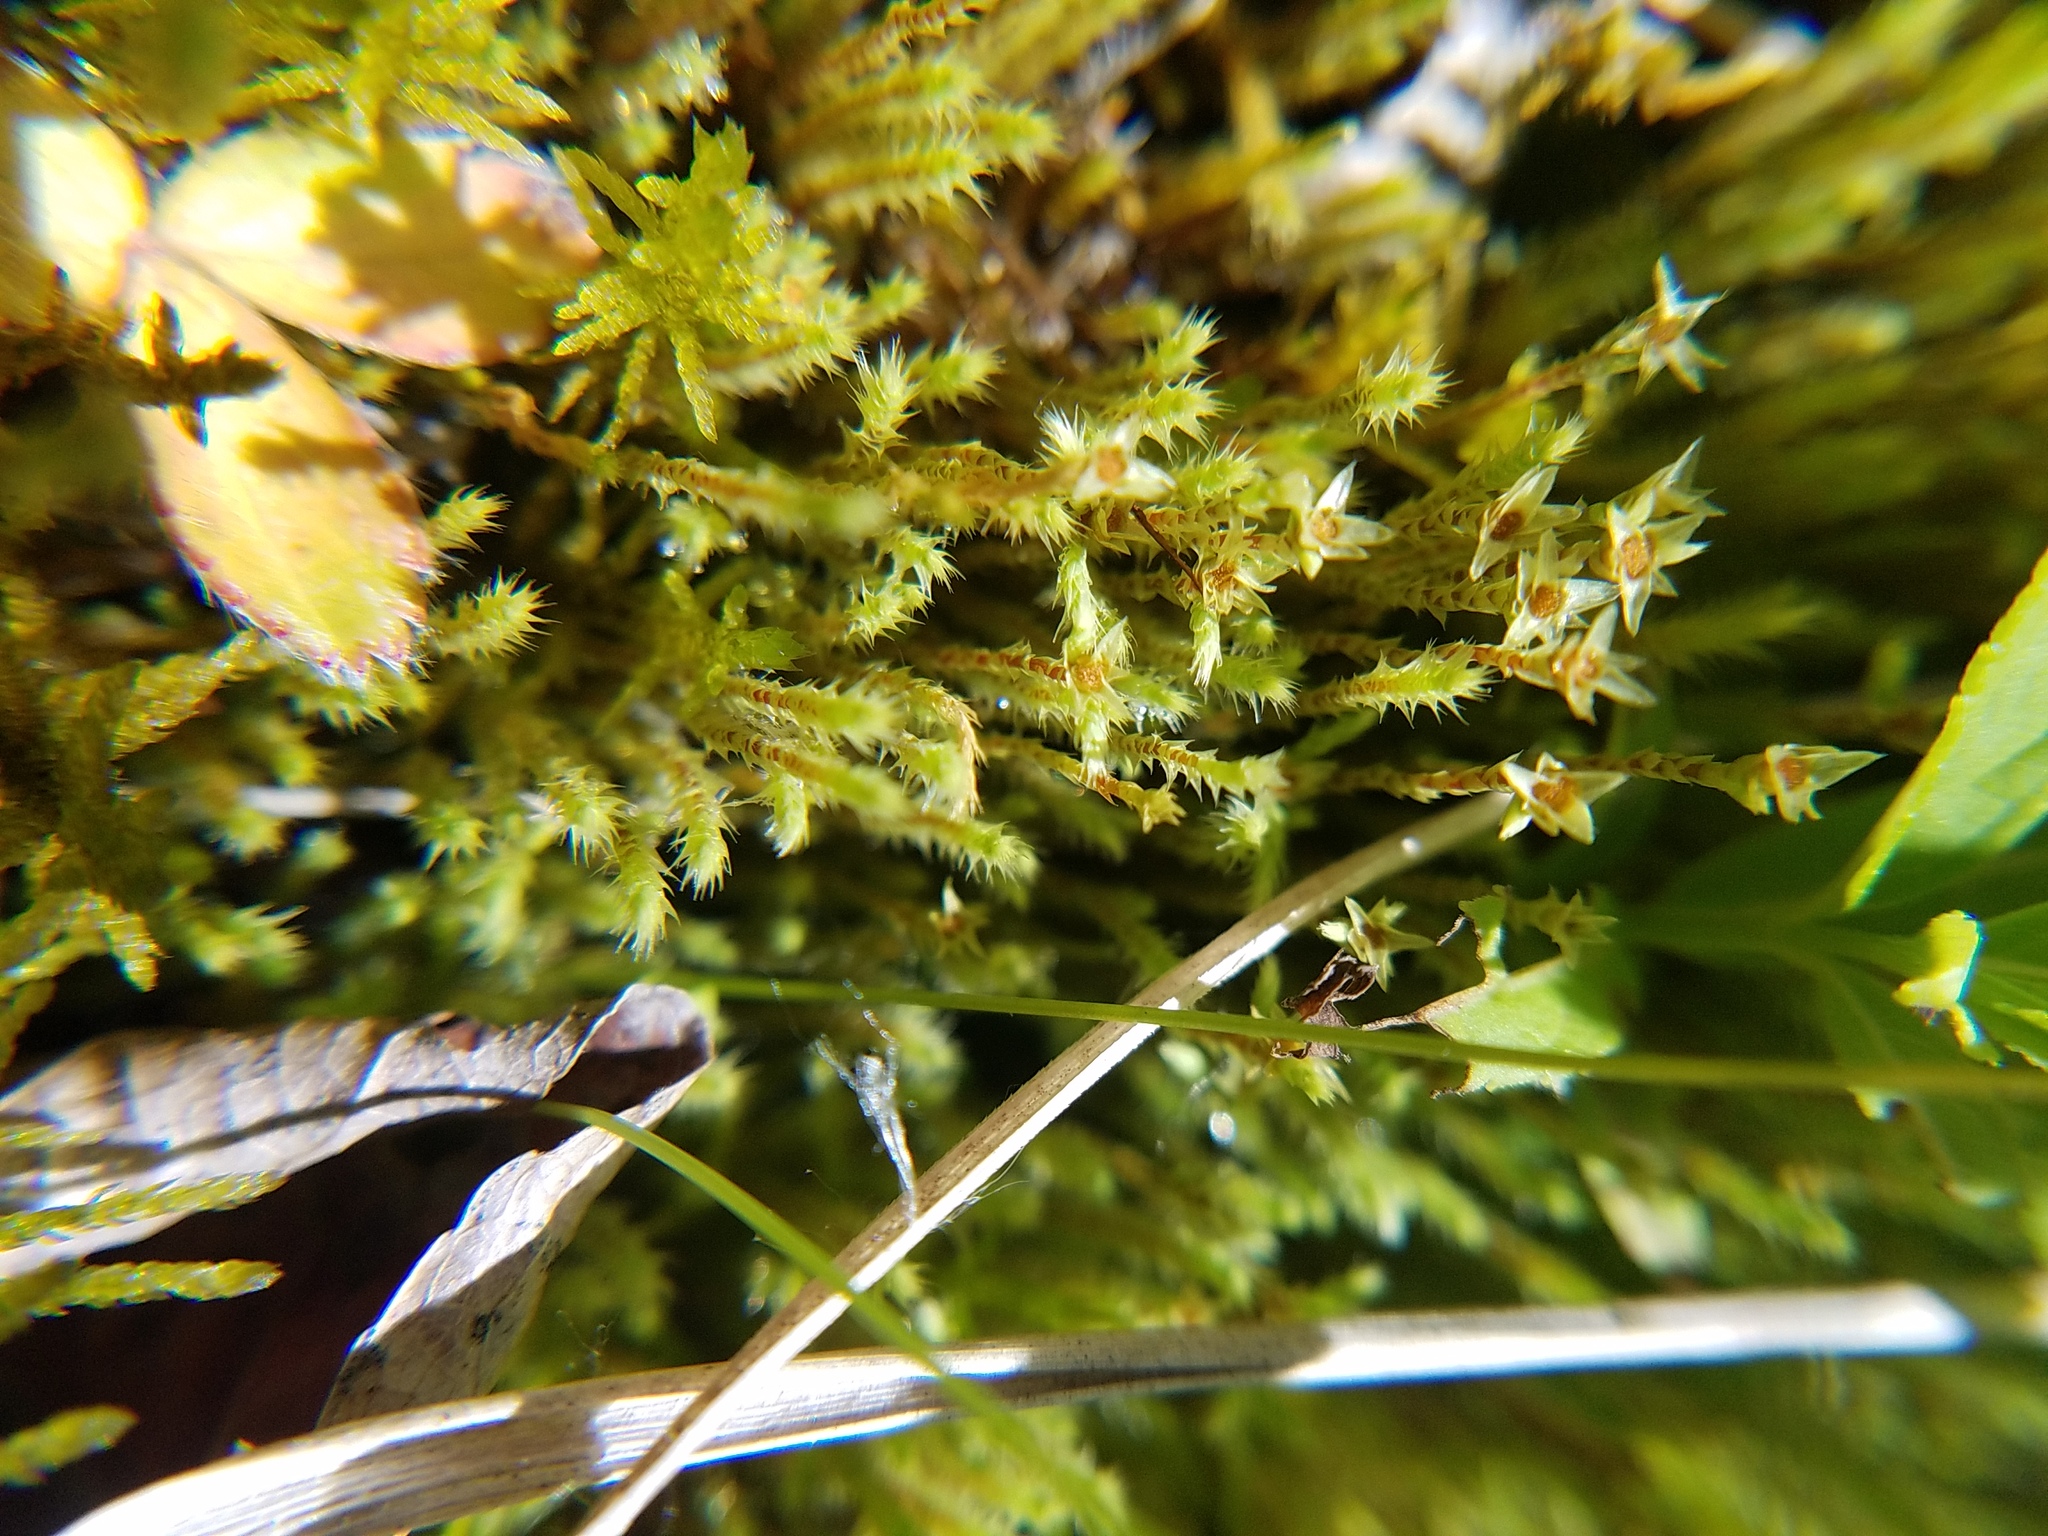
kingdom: Plantae
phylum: Bryophyta
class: Bryopsida
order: Bartramiales
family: Bartramiaceae
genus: Philonotis
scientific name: Philonotis fontana
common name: Fountain apple-moss
